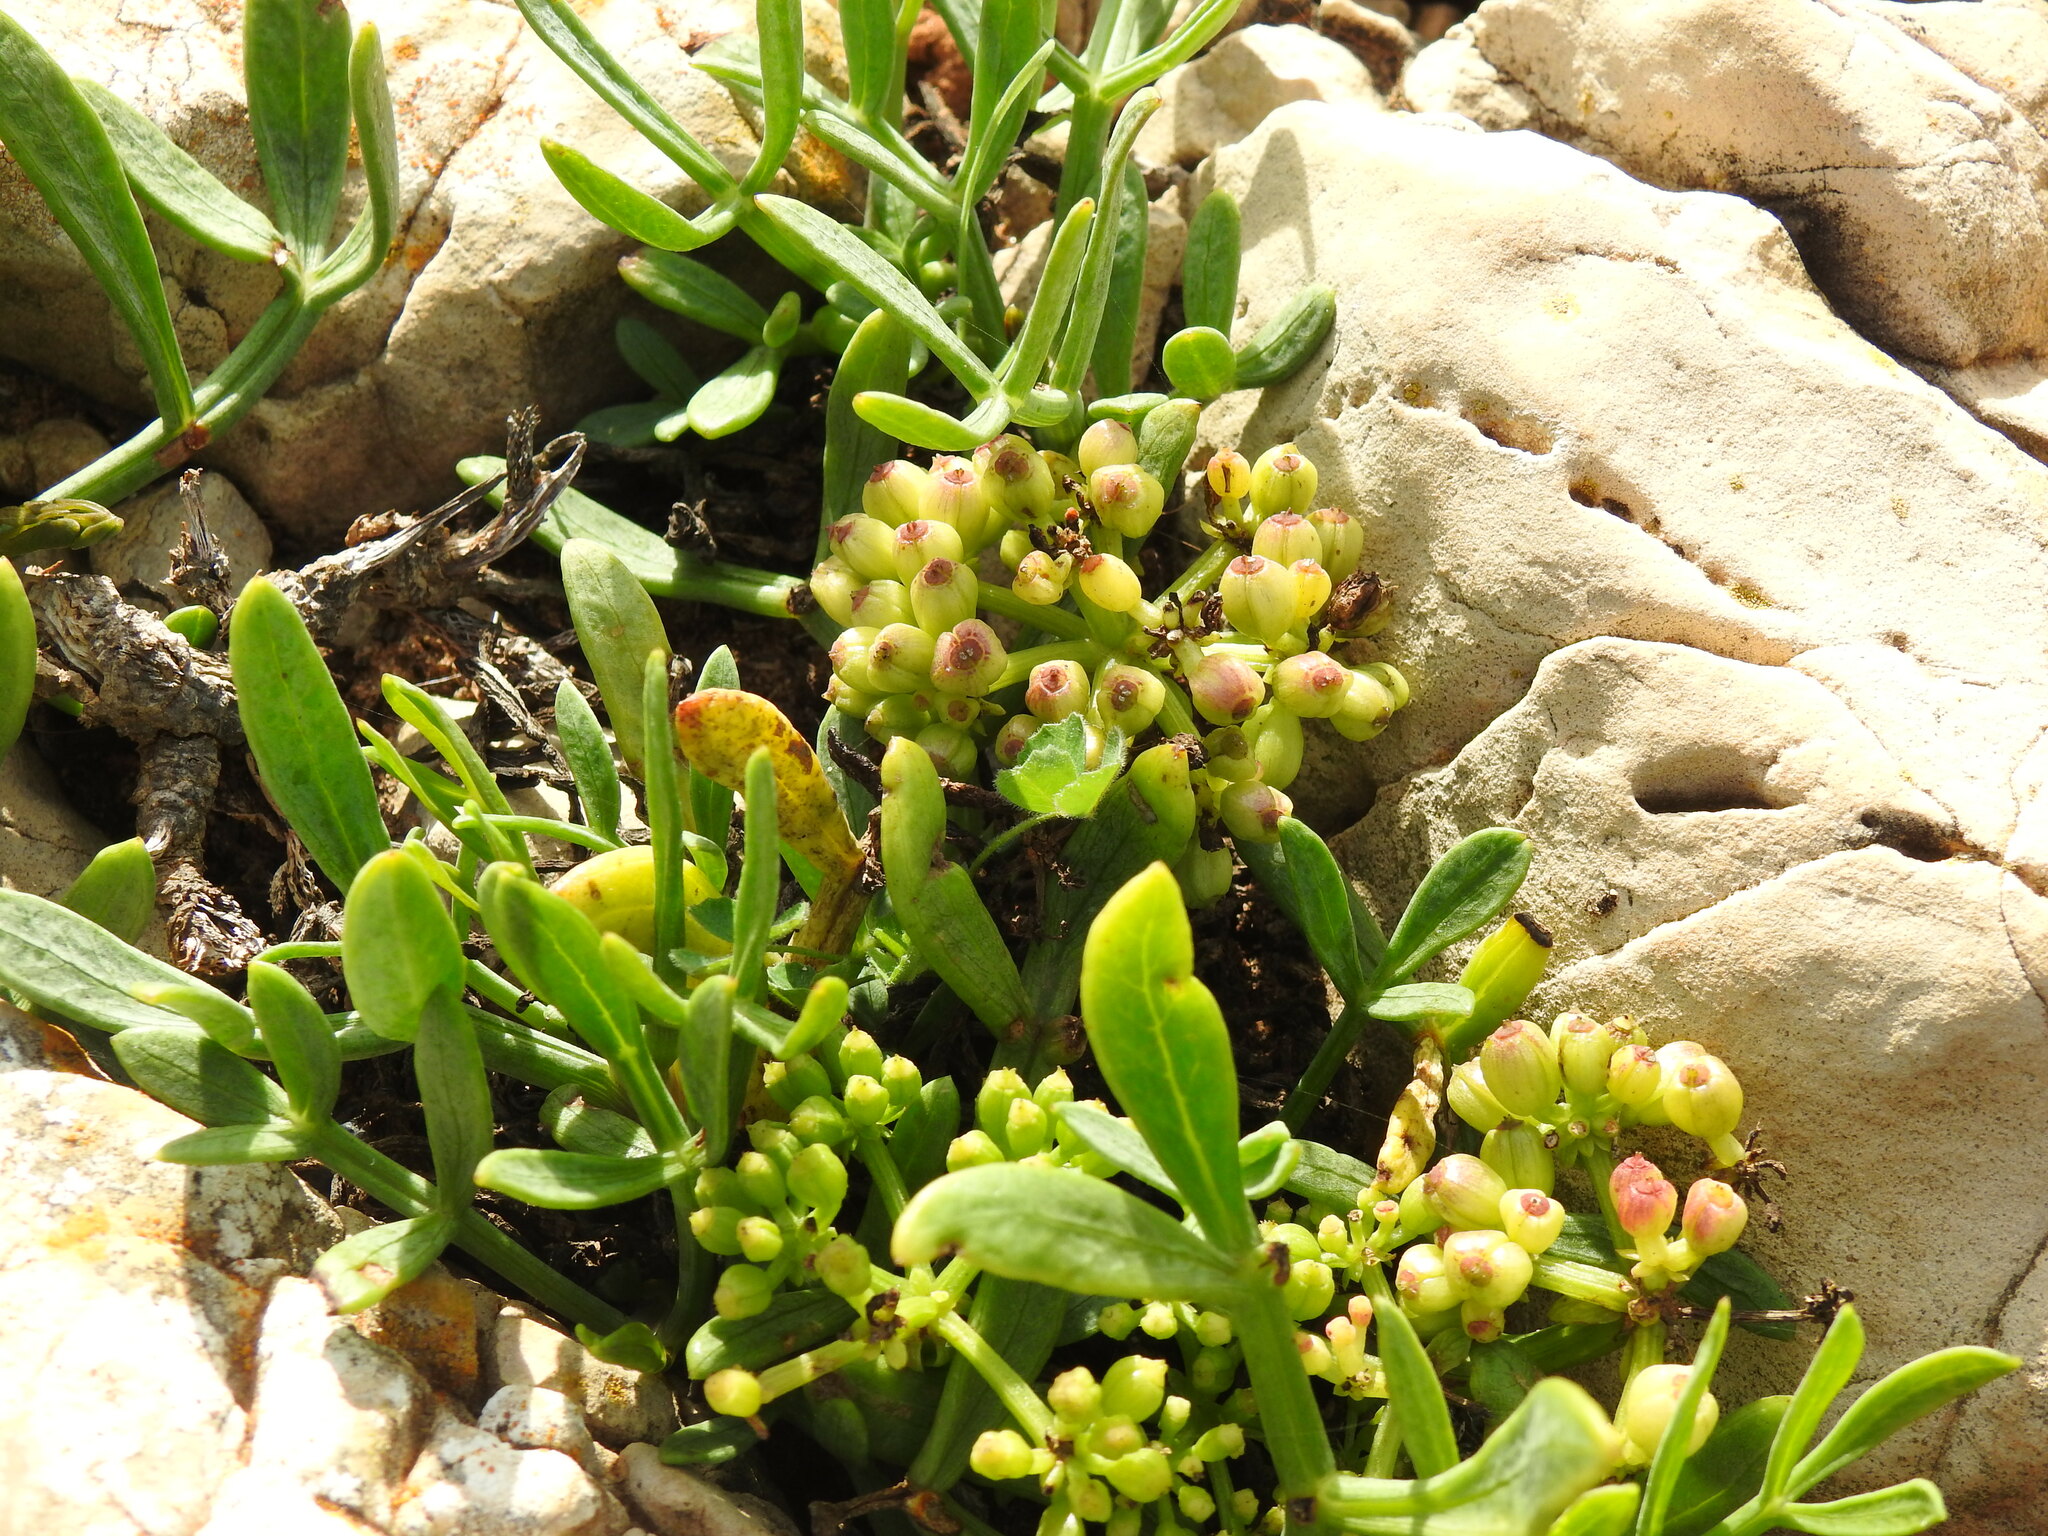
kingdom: Plantae
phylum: Tracheophyta
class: Magnoliopsida
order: Apiales
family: Apiaceae
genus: Crithmum
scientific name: Crithmum maritimum
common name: Rock samphire
